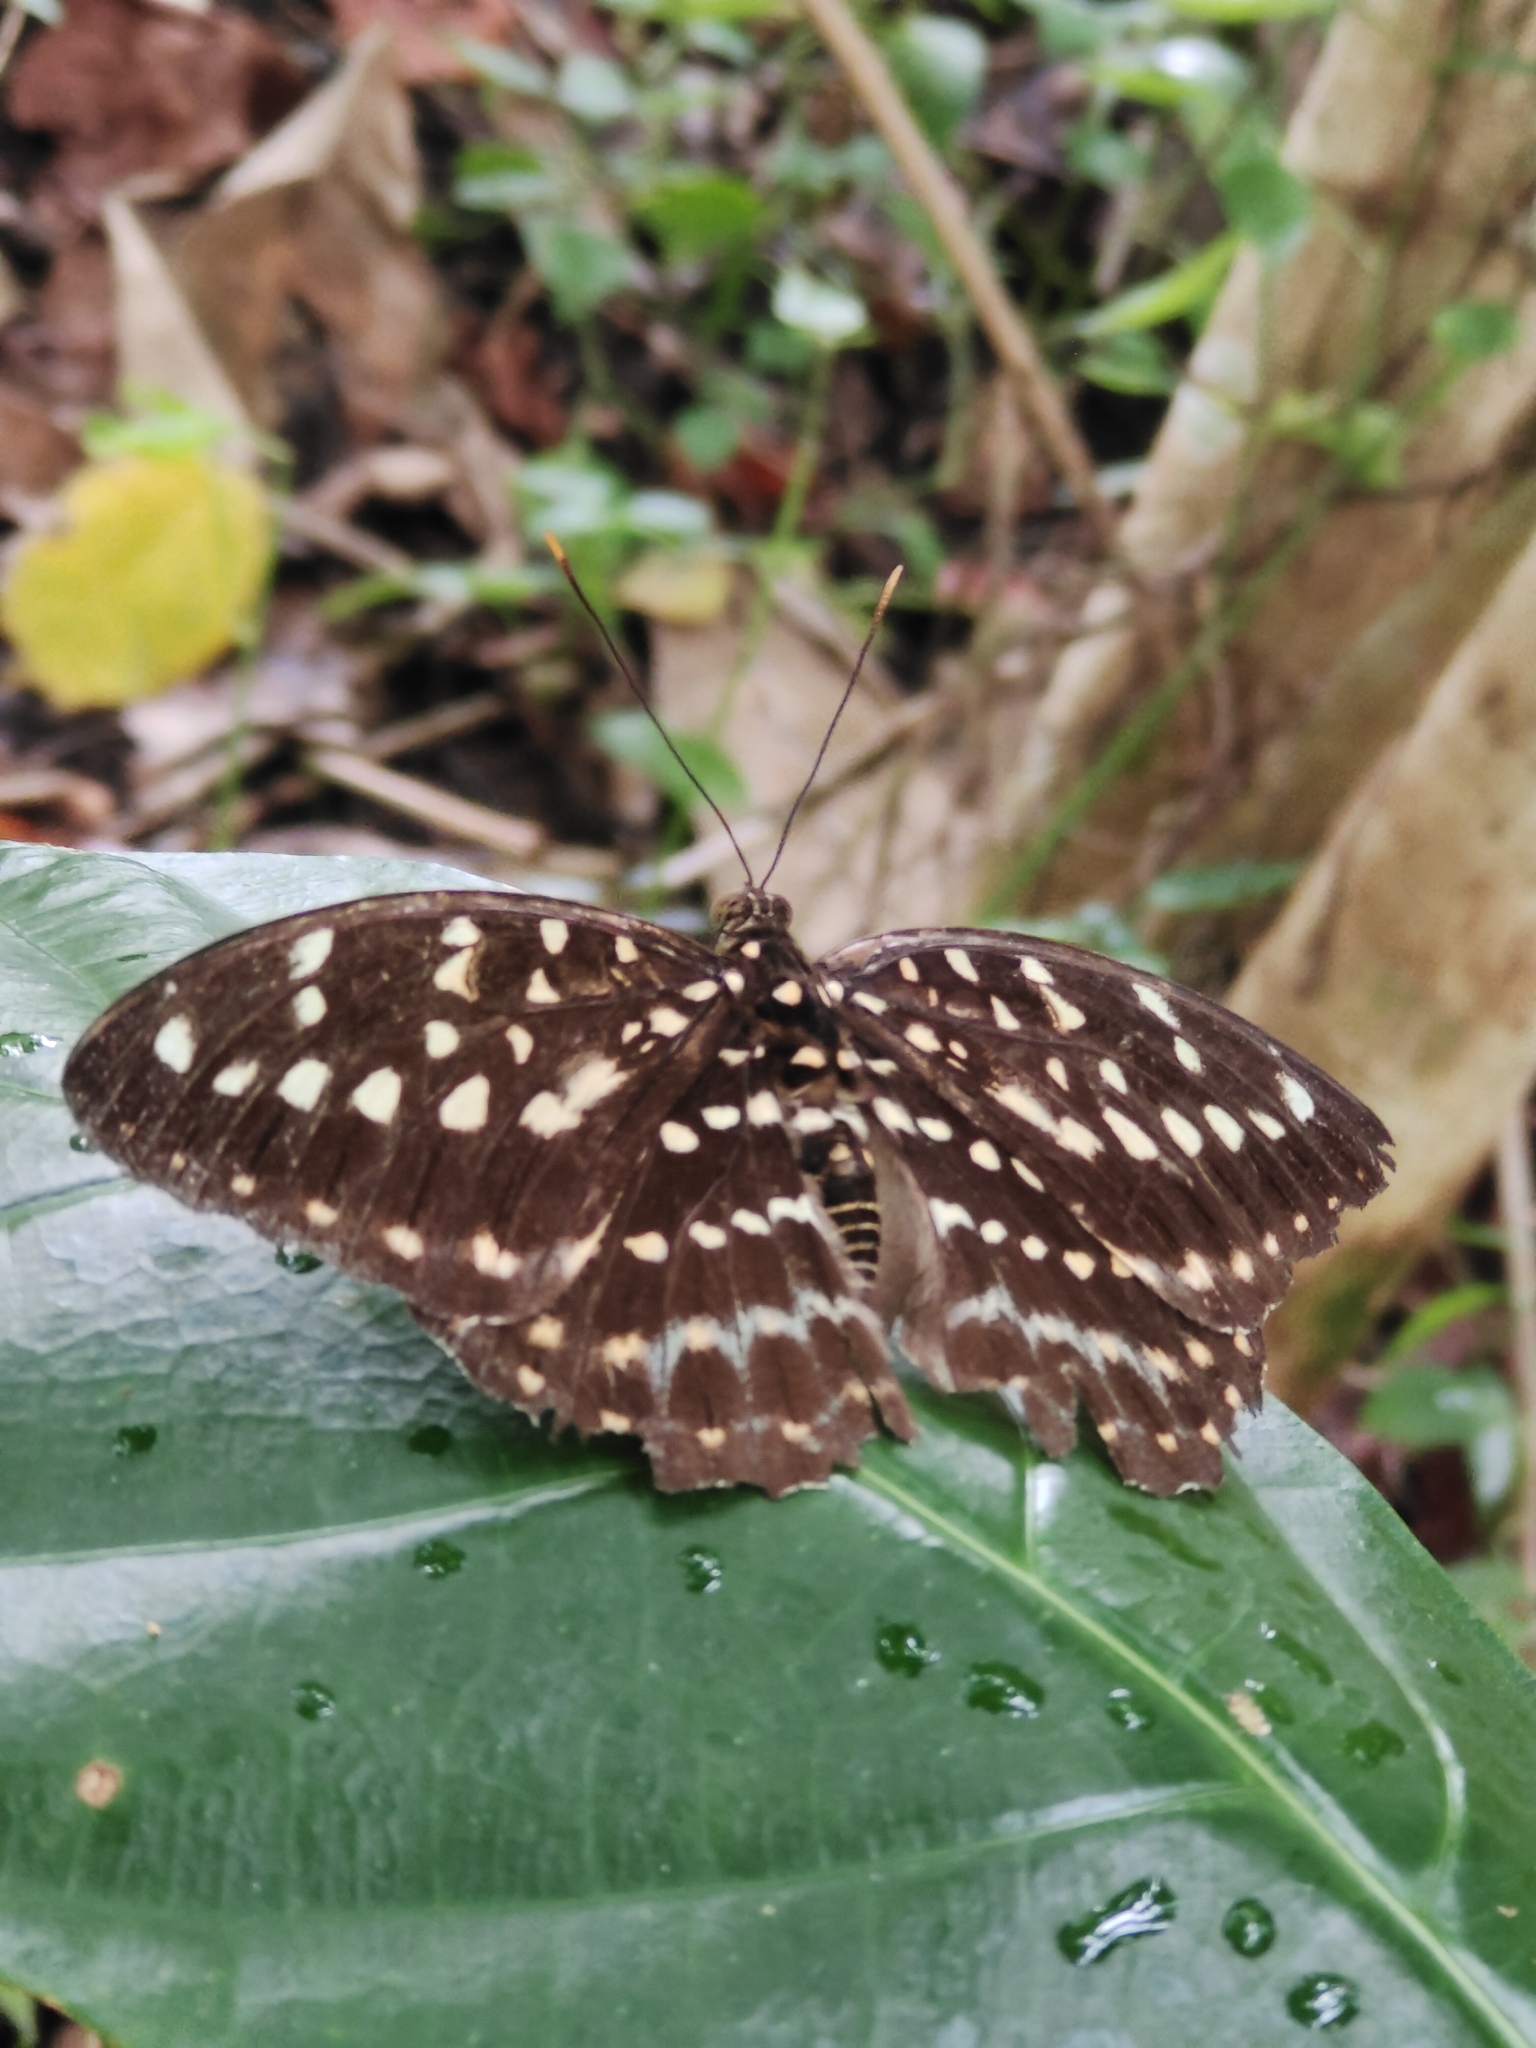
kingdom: Animalia
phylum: Arthropoda
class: Insecta
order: Lepidoptera
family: Nymphalidae
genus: Lexias
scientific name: Lexias pardalis
